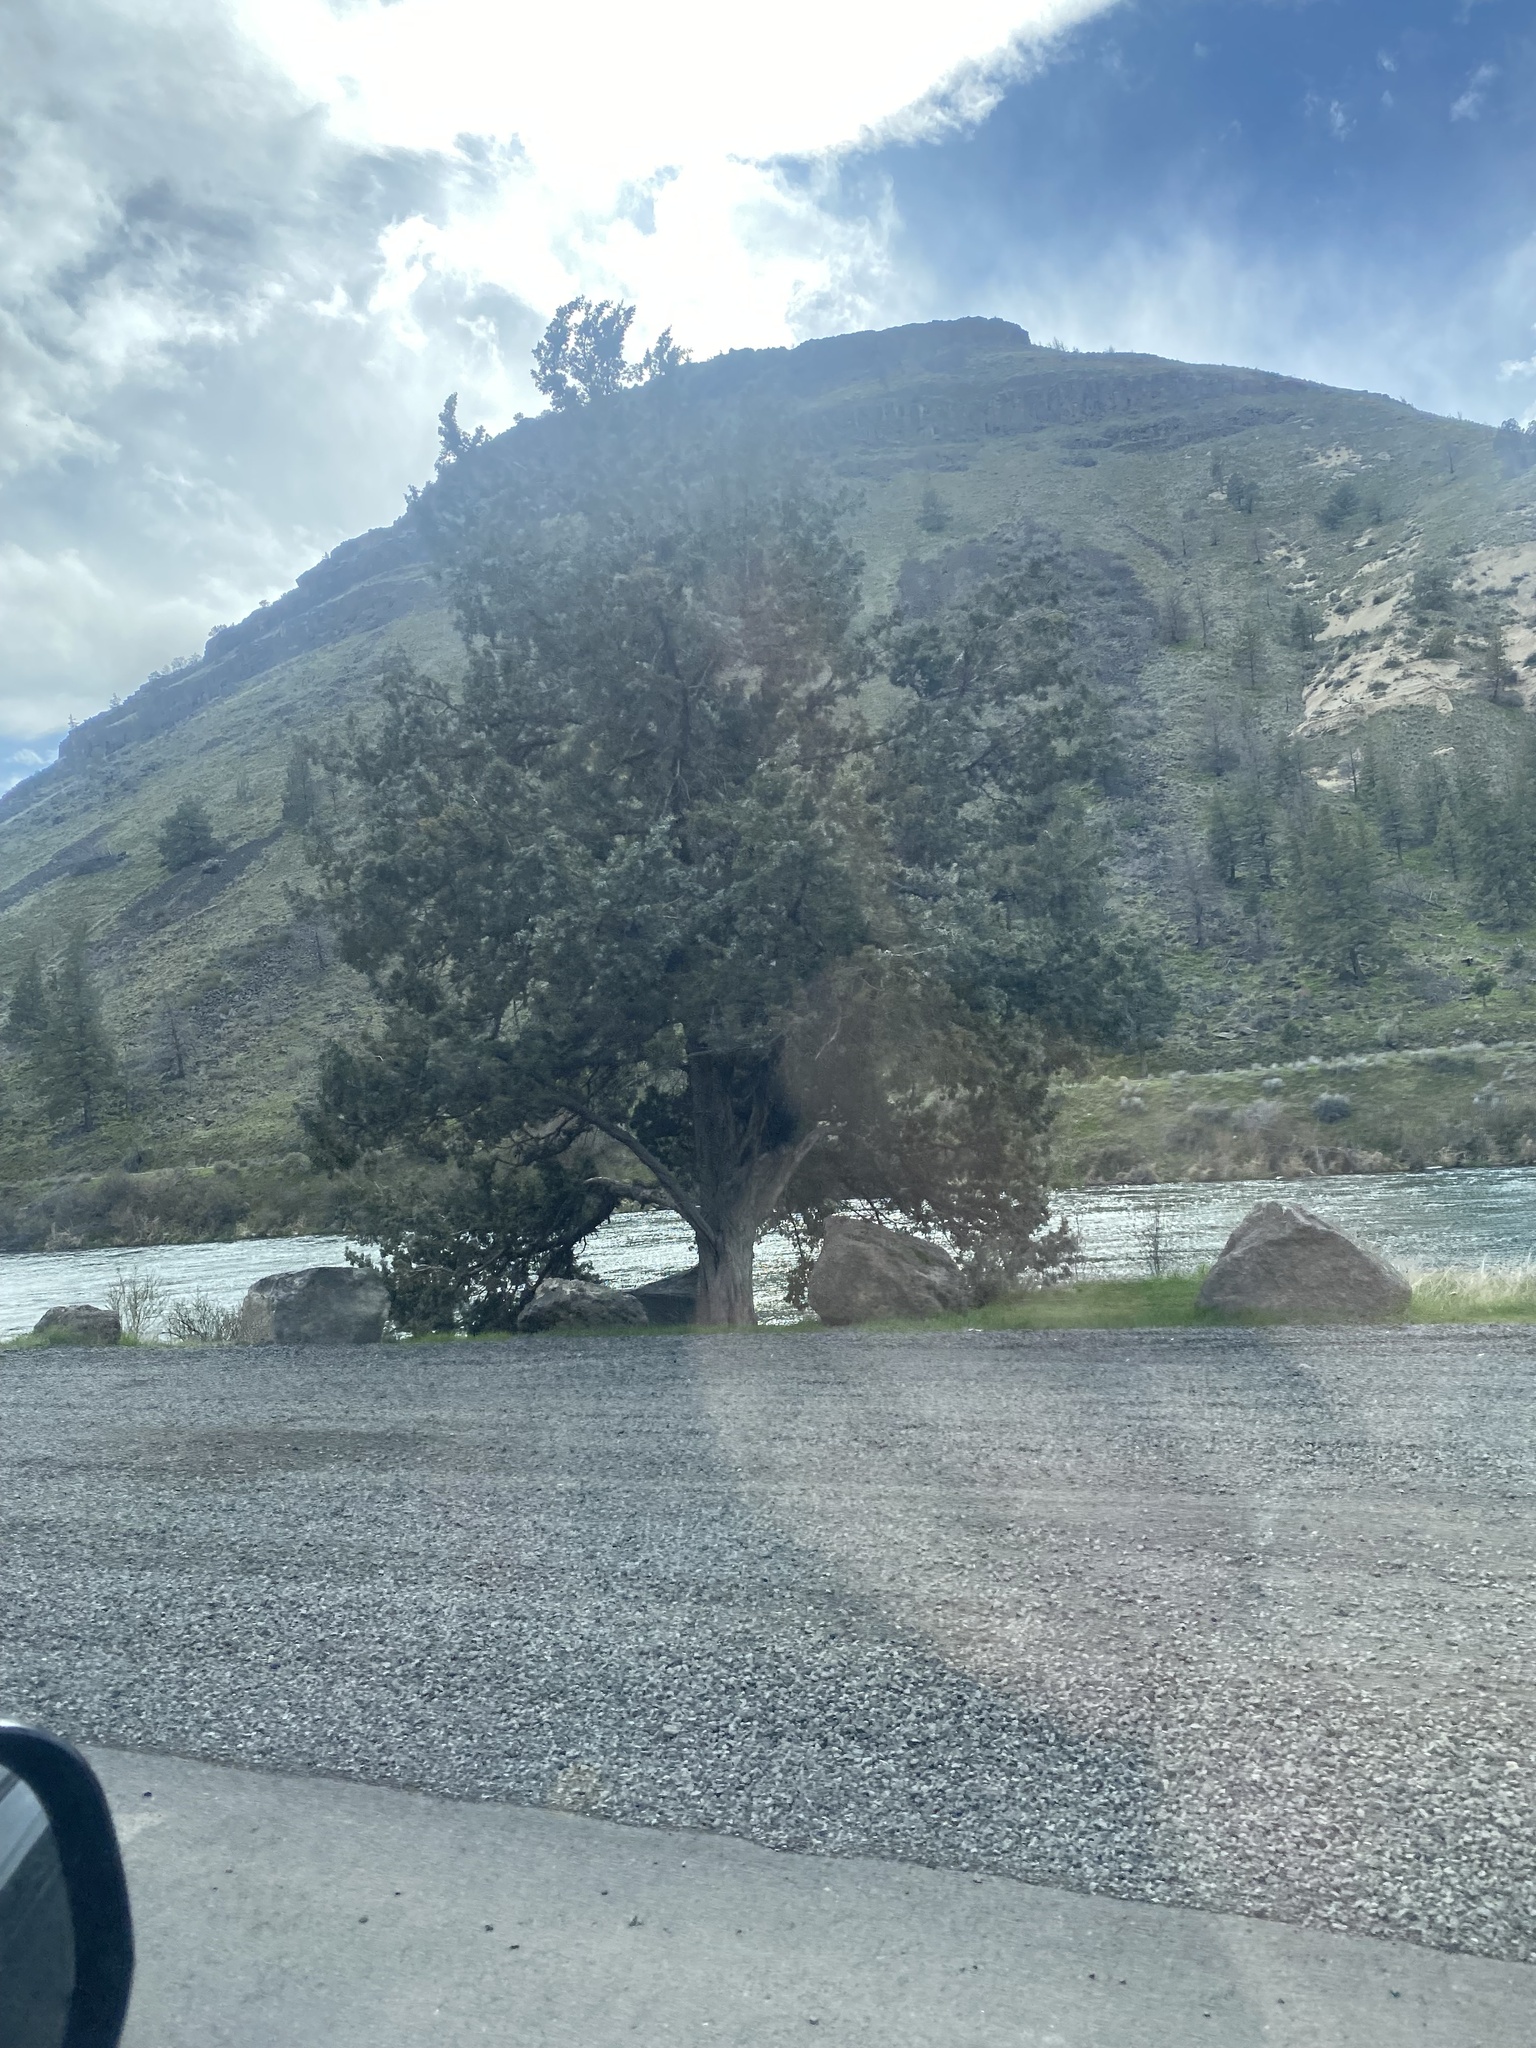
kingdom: Plantae
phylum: Tracheophyta
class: Pinopsida
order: Pinales
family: Cupressaceae
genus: Juniperus
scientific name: Juniperus occidentalis
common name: Western juniper
